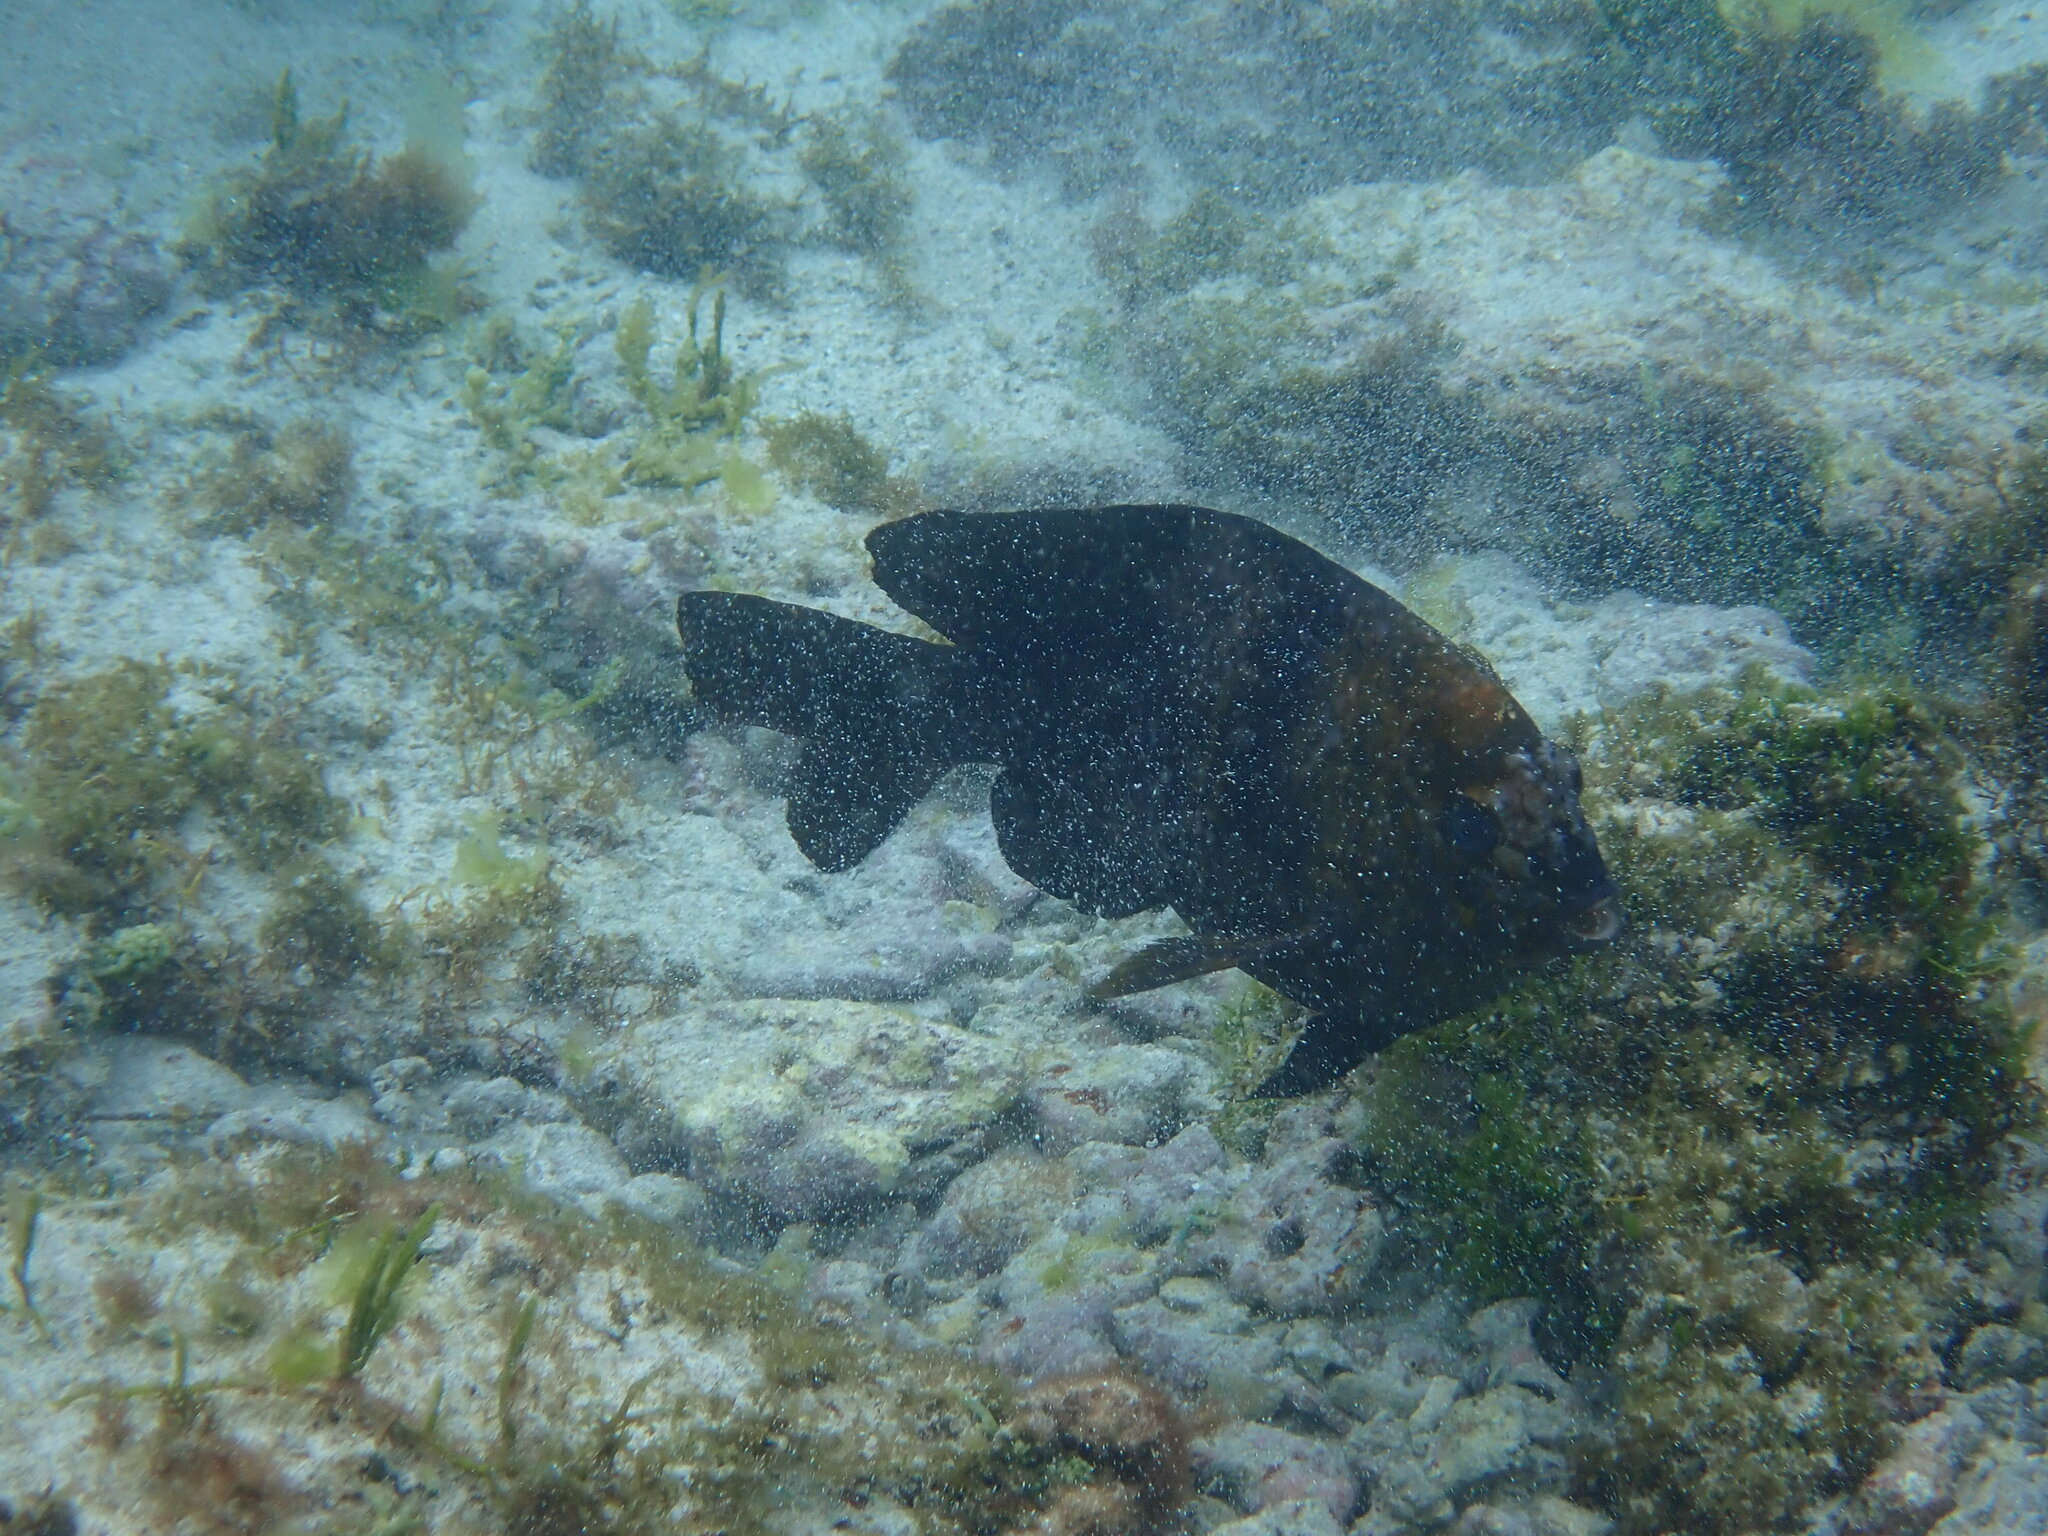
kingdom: Animalia
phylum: Chordata
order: Perciformes
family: Pomacentridae
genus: Parma
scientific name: Parma polylepis
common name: Banded parma
